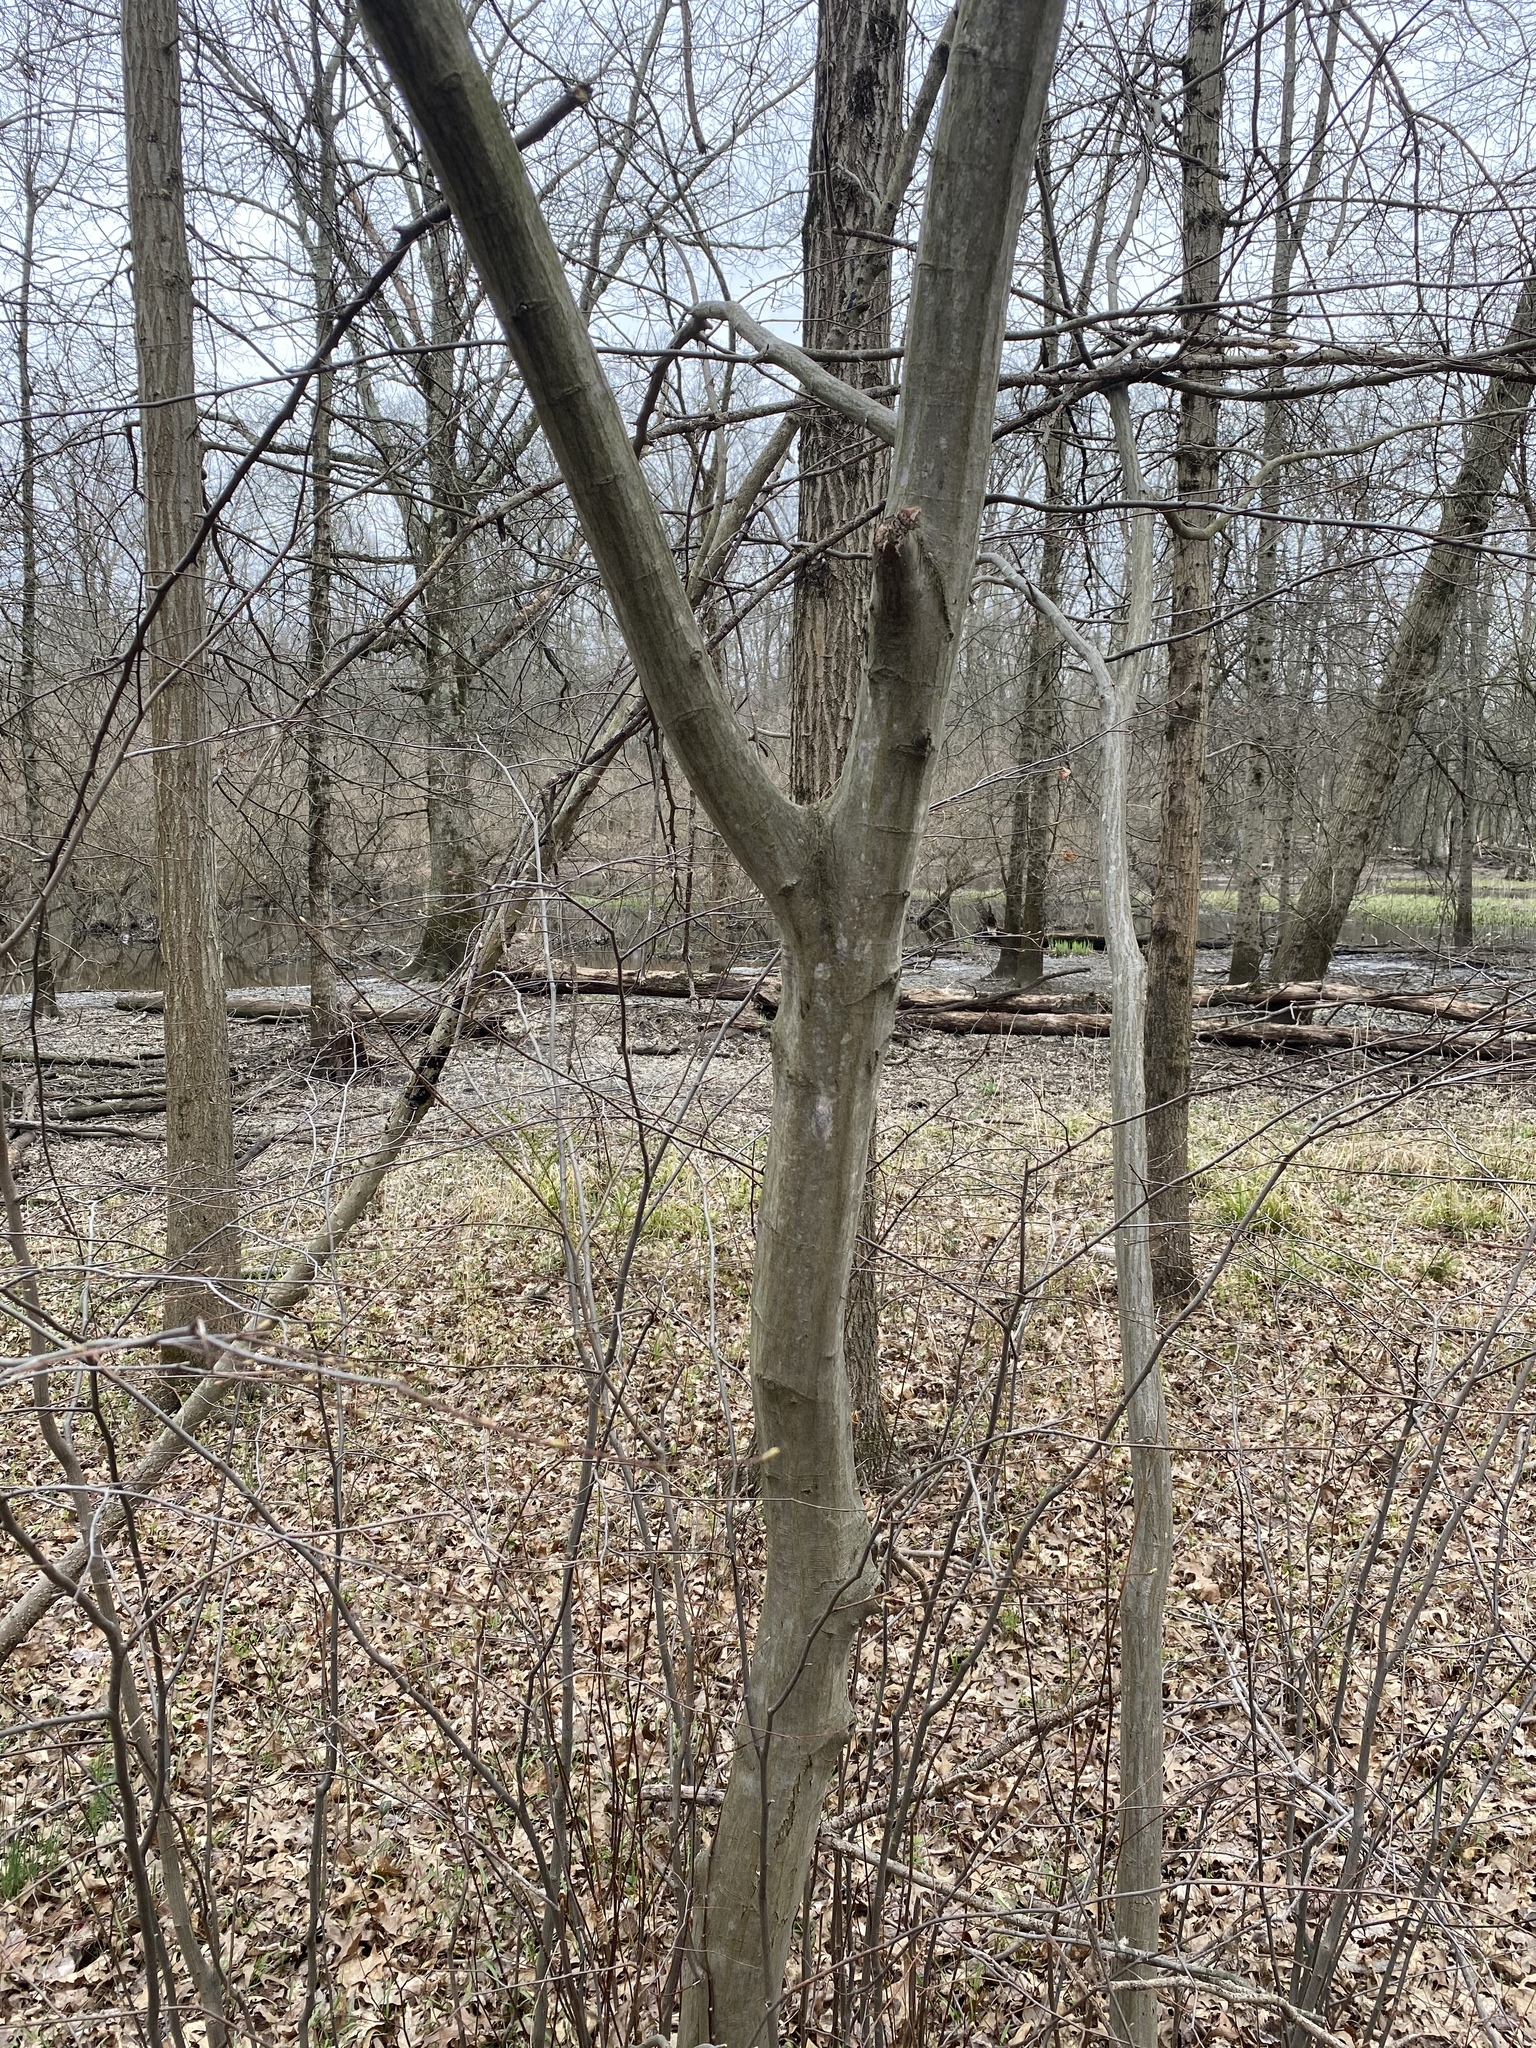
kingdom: Plantae
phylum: Tracheophyta
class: Magnoliopsida
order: Fagales
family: Betulaceae
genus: Carpinus
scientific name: Carpinus caroliniana
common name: American hornbeam
